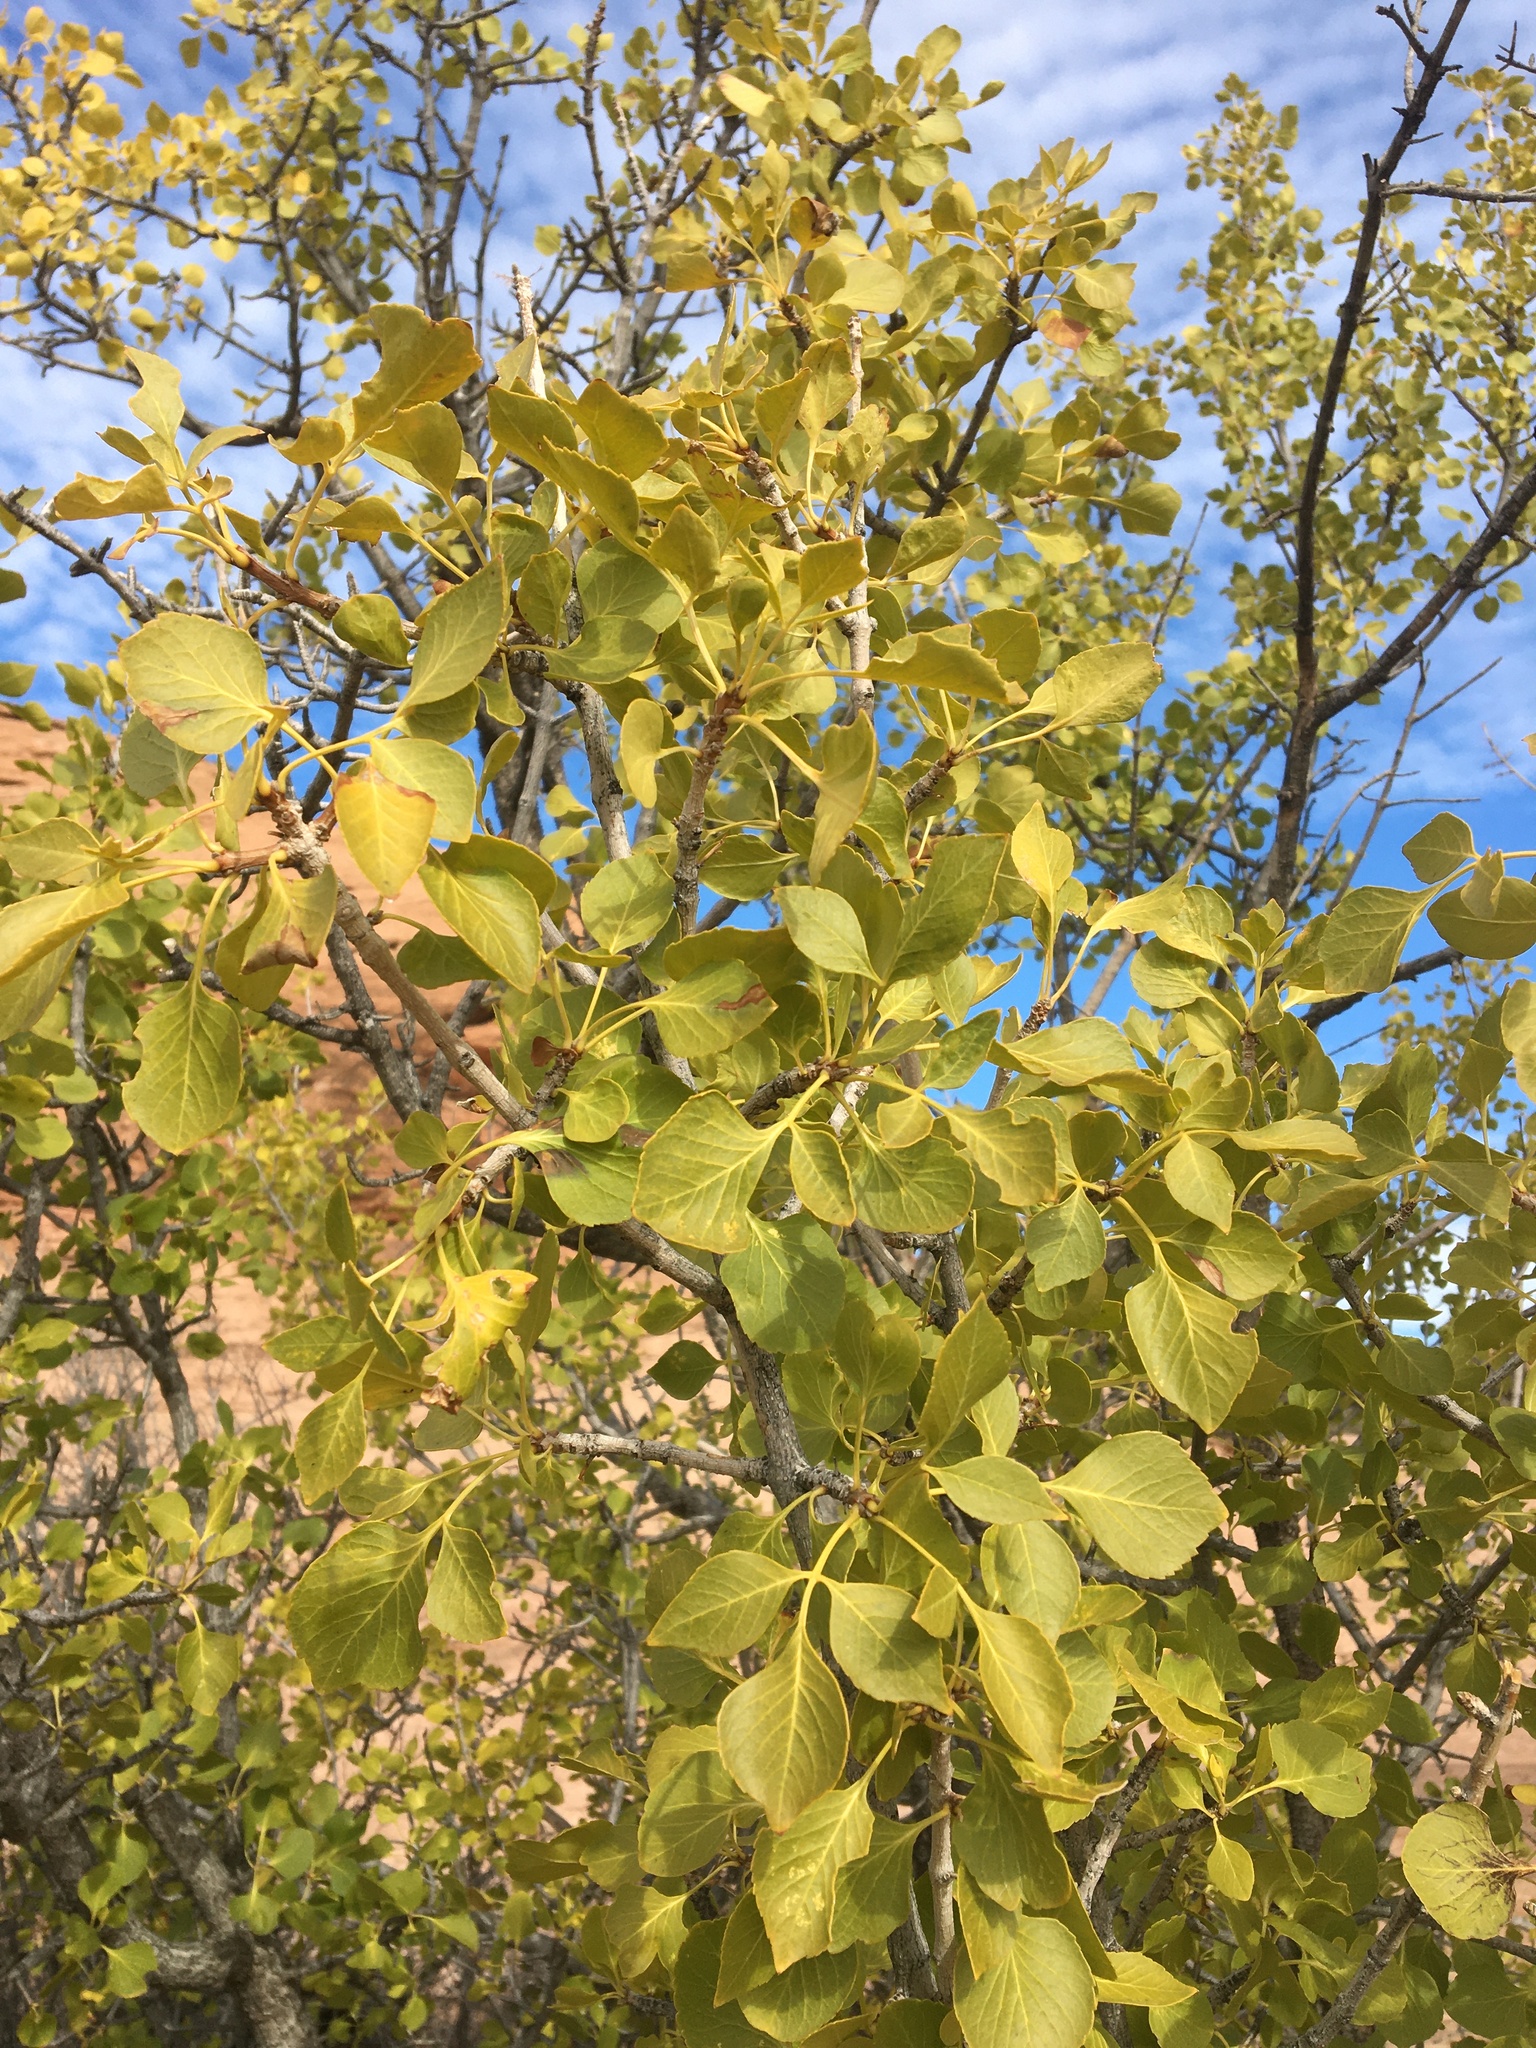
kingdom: Plantae
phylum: Tracheophyta
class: Magnoliopsida
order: Lamiales
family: Oleaceae
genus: Fraxinus
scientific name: Fraxinus anomala
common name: Utah ash
